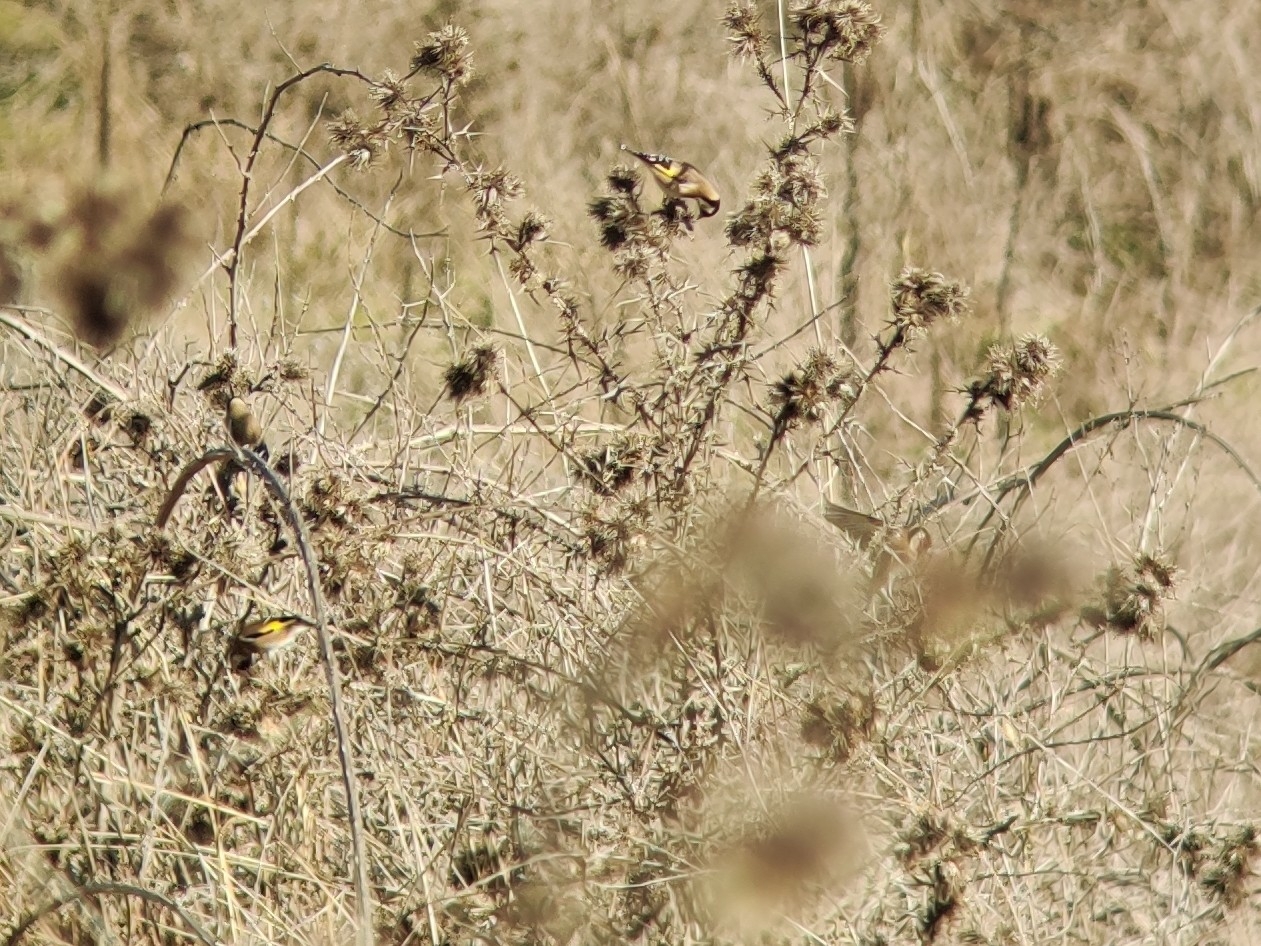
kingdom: Animalia
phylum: Chordata
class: Aves
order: Passeriformes
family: Fringillidae
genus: Carduelis
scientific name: Carduelis carduelis
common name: European goldfinch
